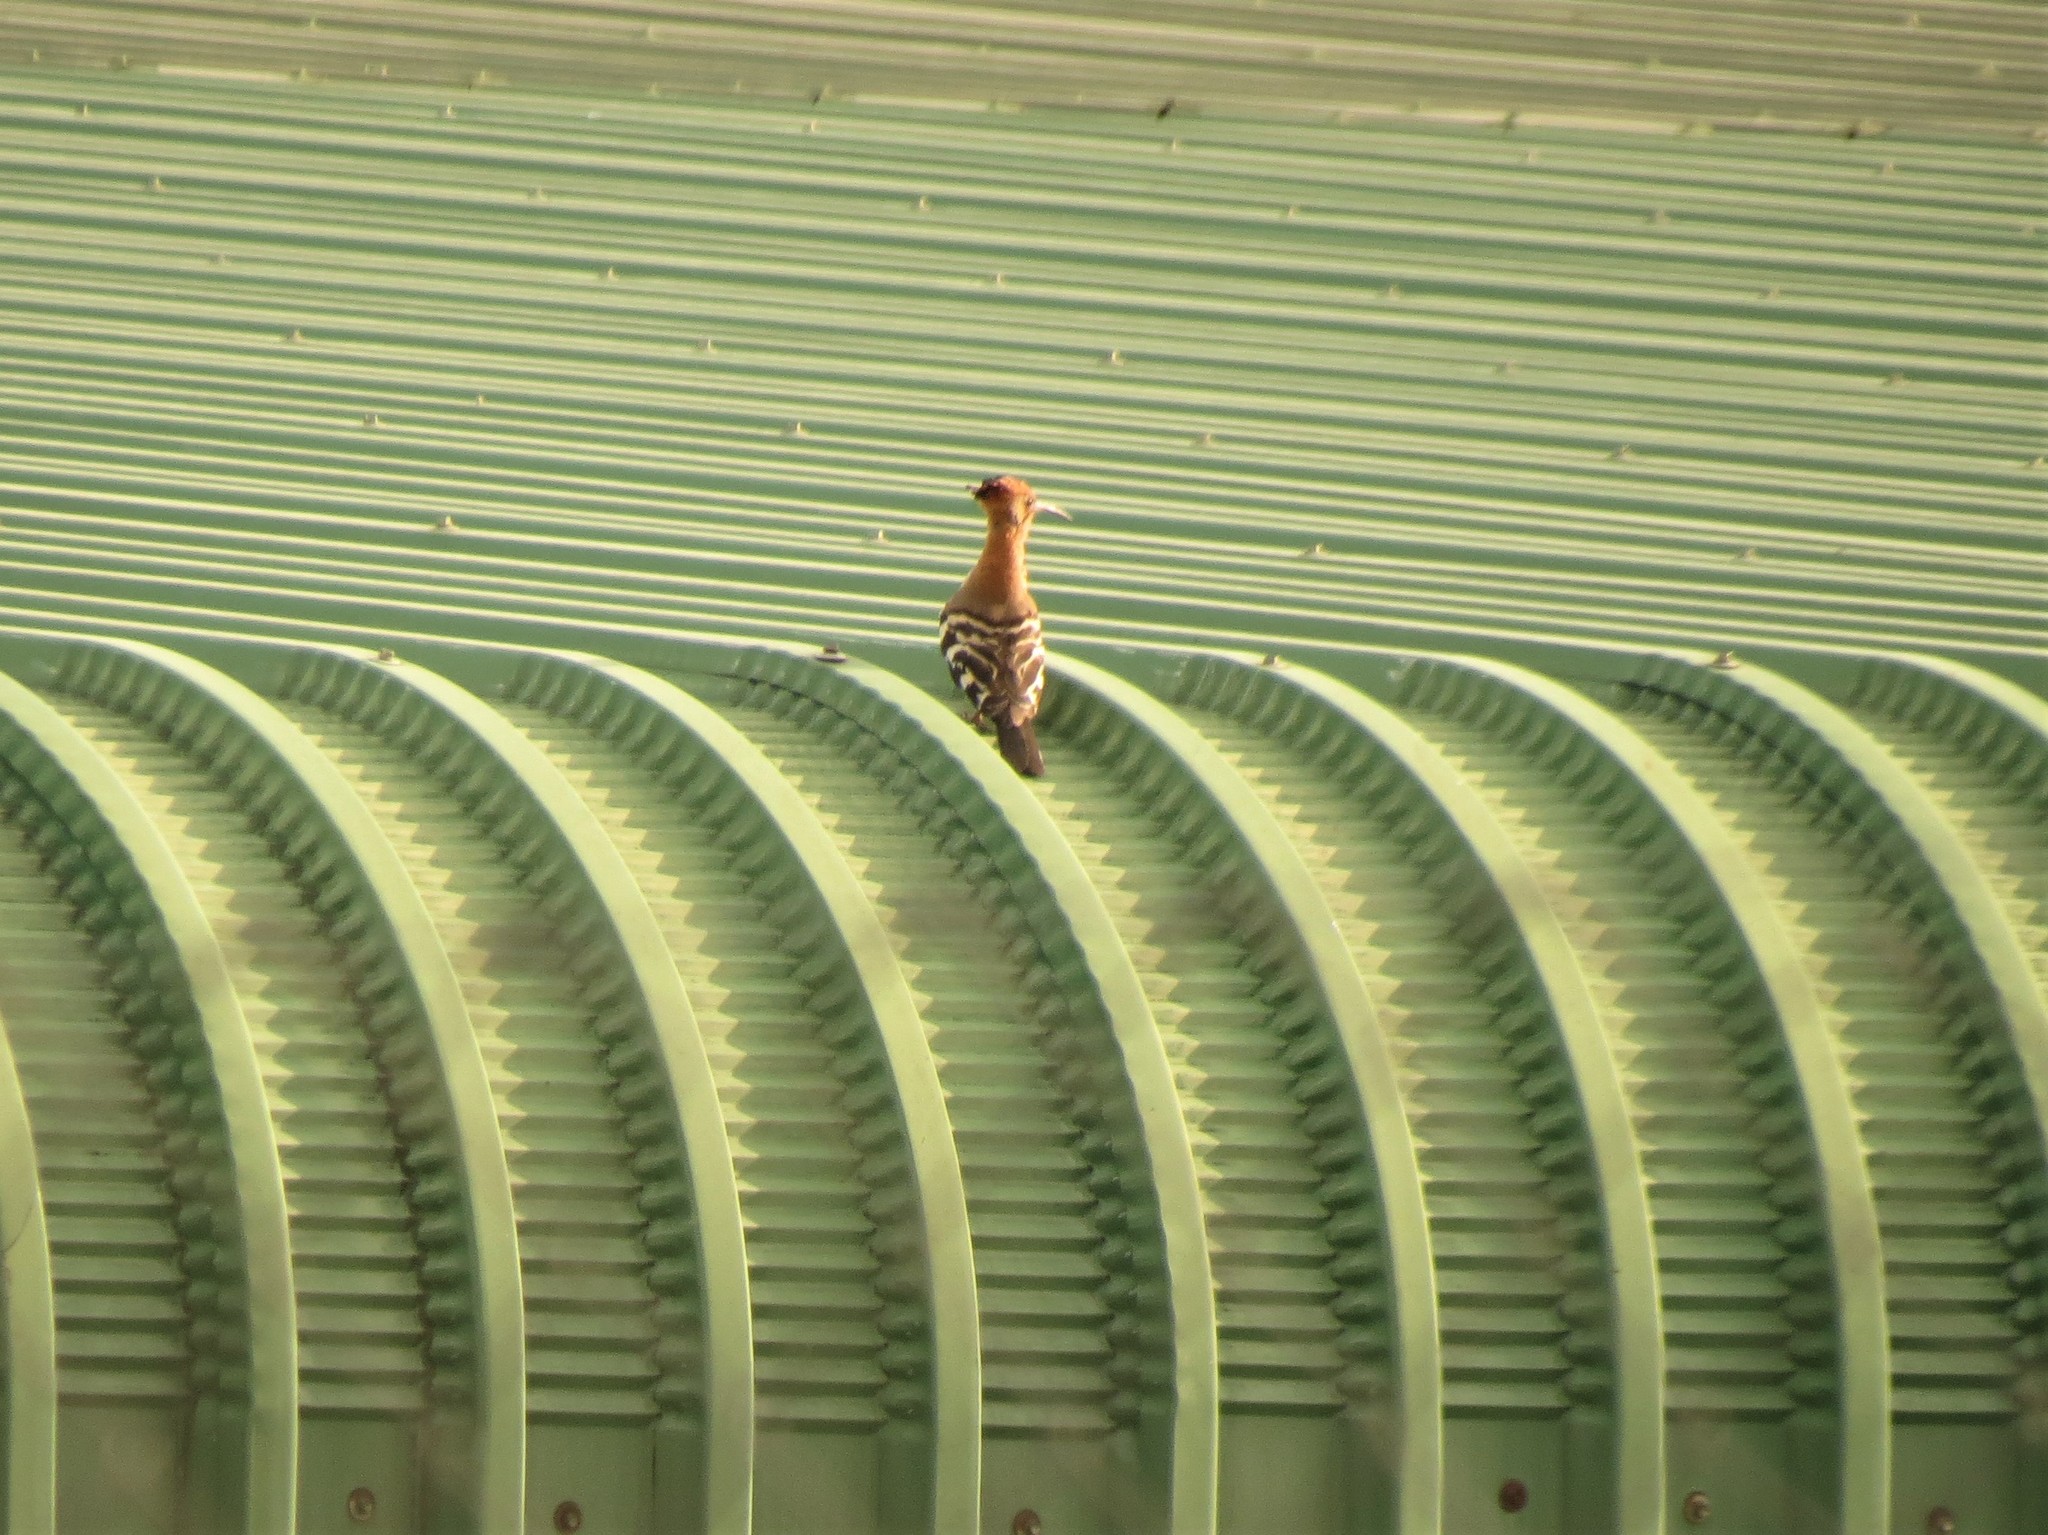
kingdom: Animalia
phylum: Chordata
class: Aves
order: Bucerotiformes
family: Upupidae
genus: Upupa
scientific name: Upupa africana
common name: African hoopoe
